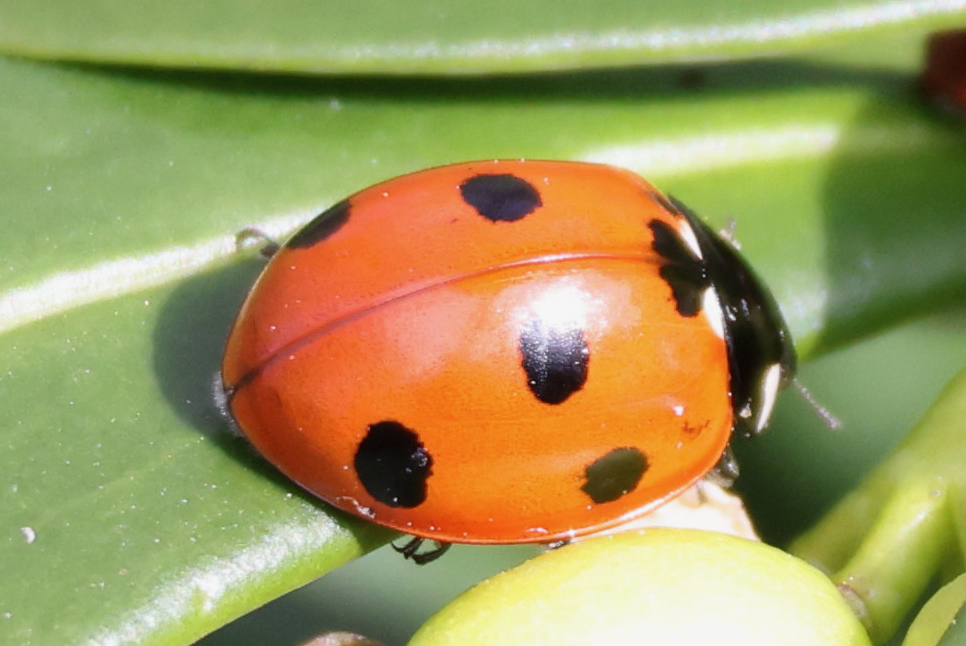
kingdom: Animalia
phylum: Arthropoda
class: Insecta
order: Coleoptera
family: Coccinellidae
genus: Coccinella
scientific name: Coccinella septempunctata
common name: Sevenspotted lady beetle
